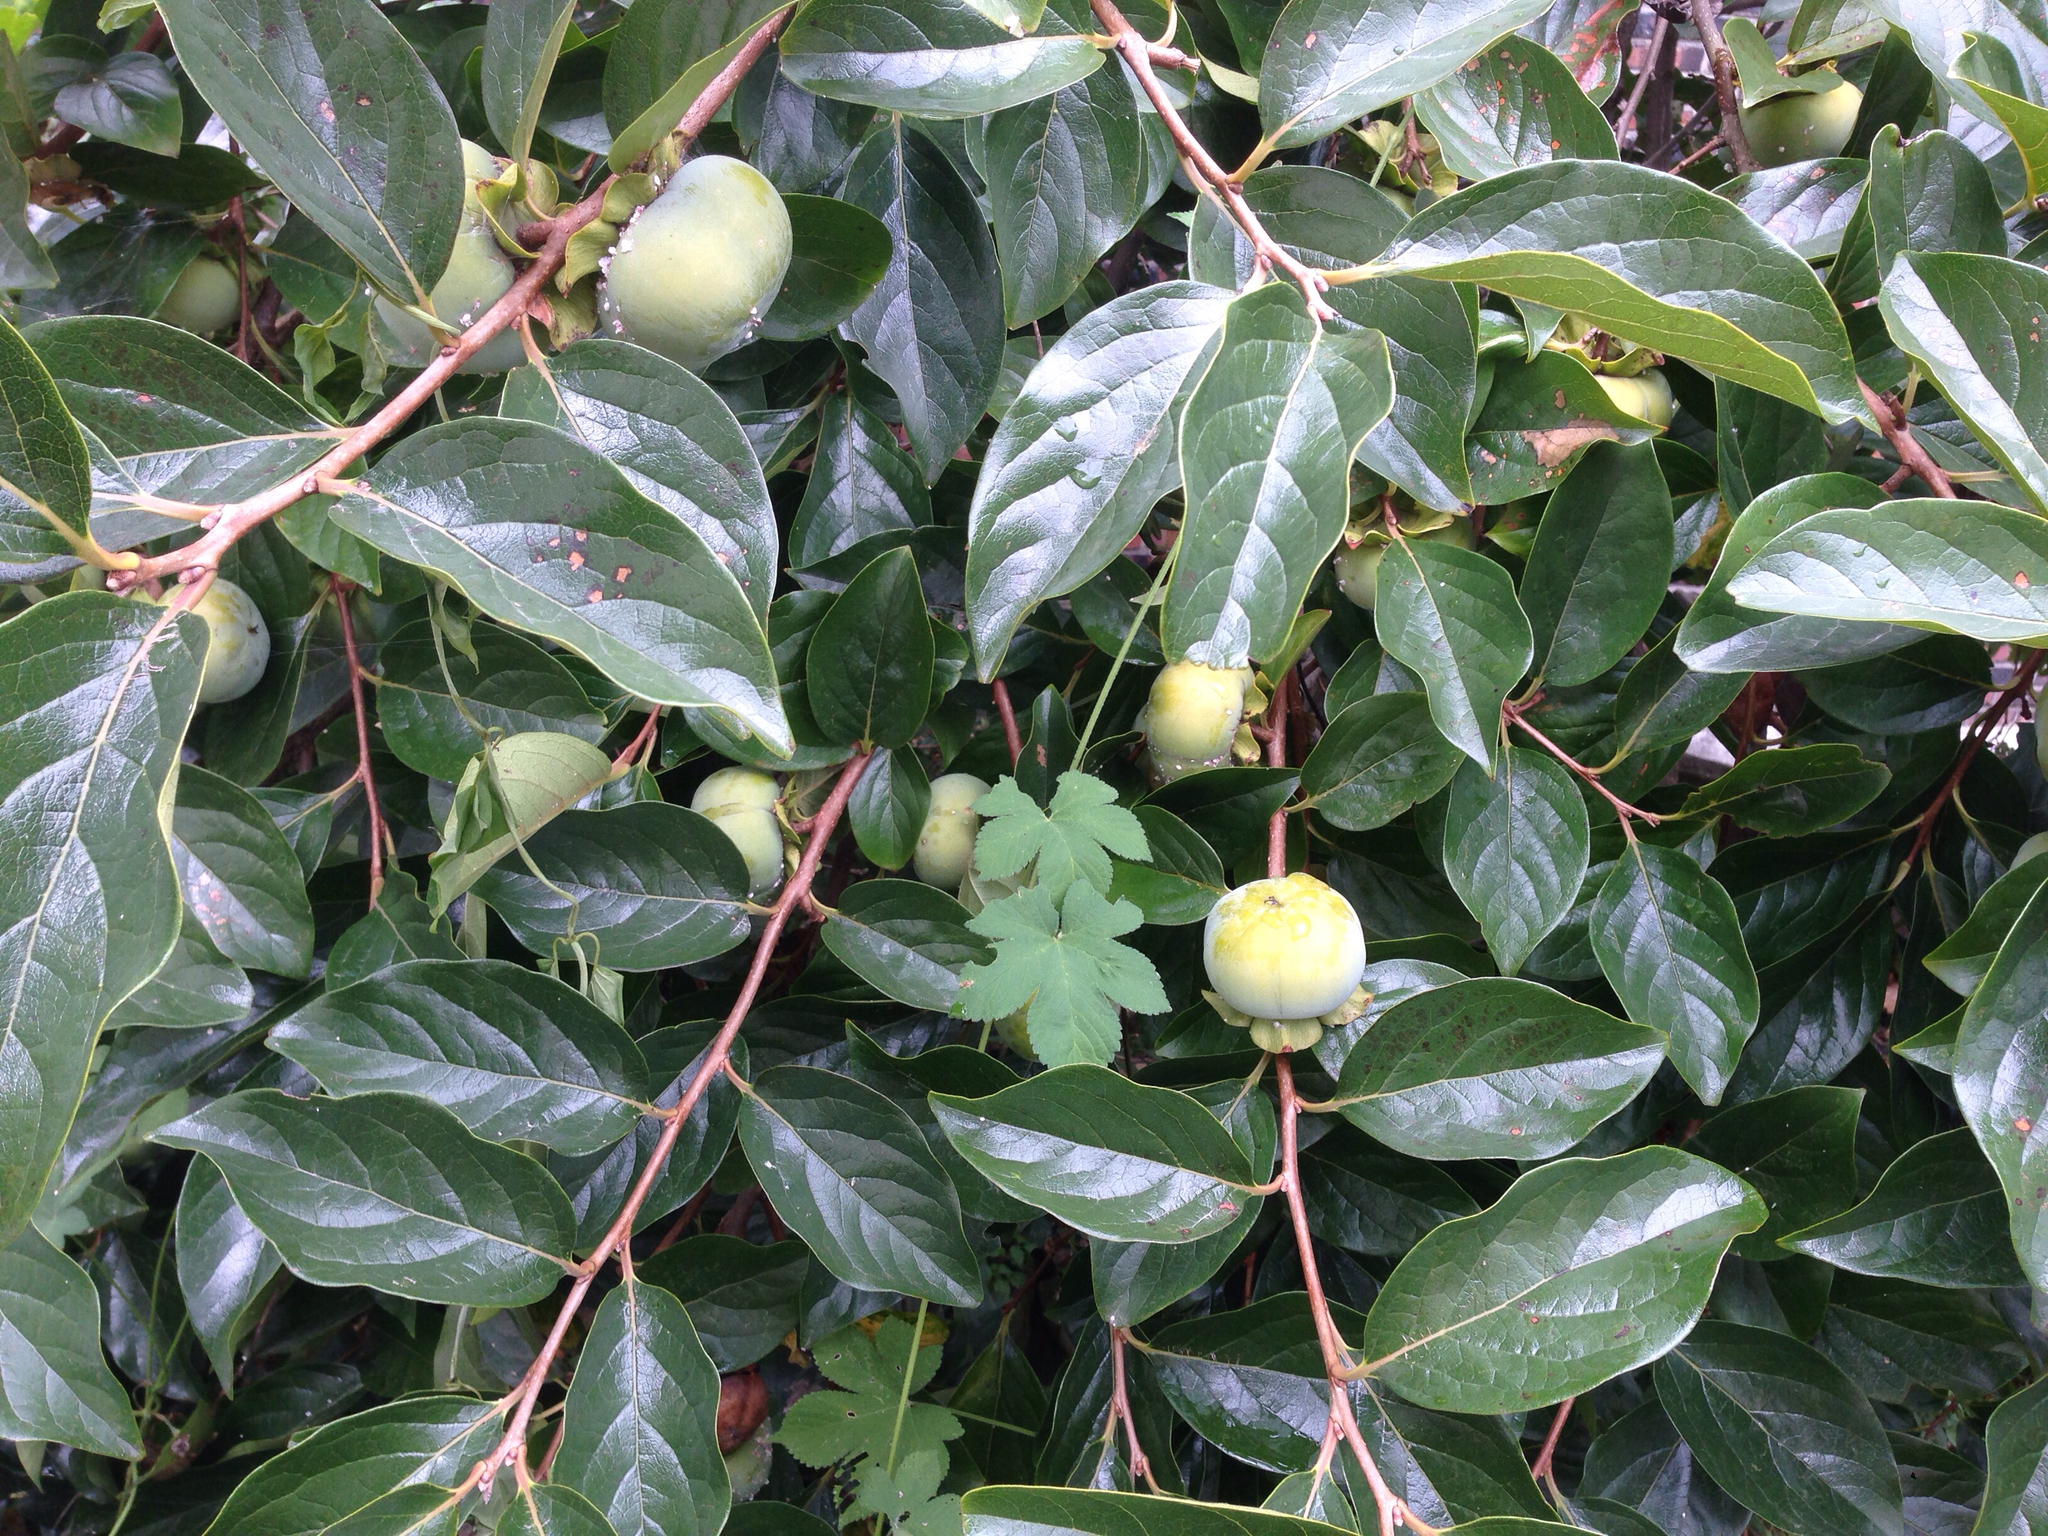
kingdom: Plantae
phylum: Tracheophyta
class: Magnoliopsida
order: Ericales
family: Ebenaceae
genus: Diospyros
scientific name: Diospyros kaki
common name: Persimmon
